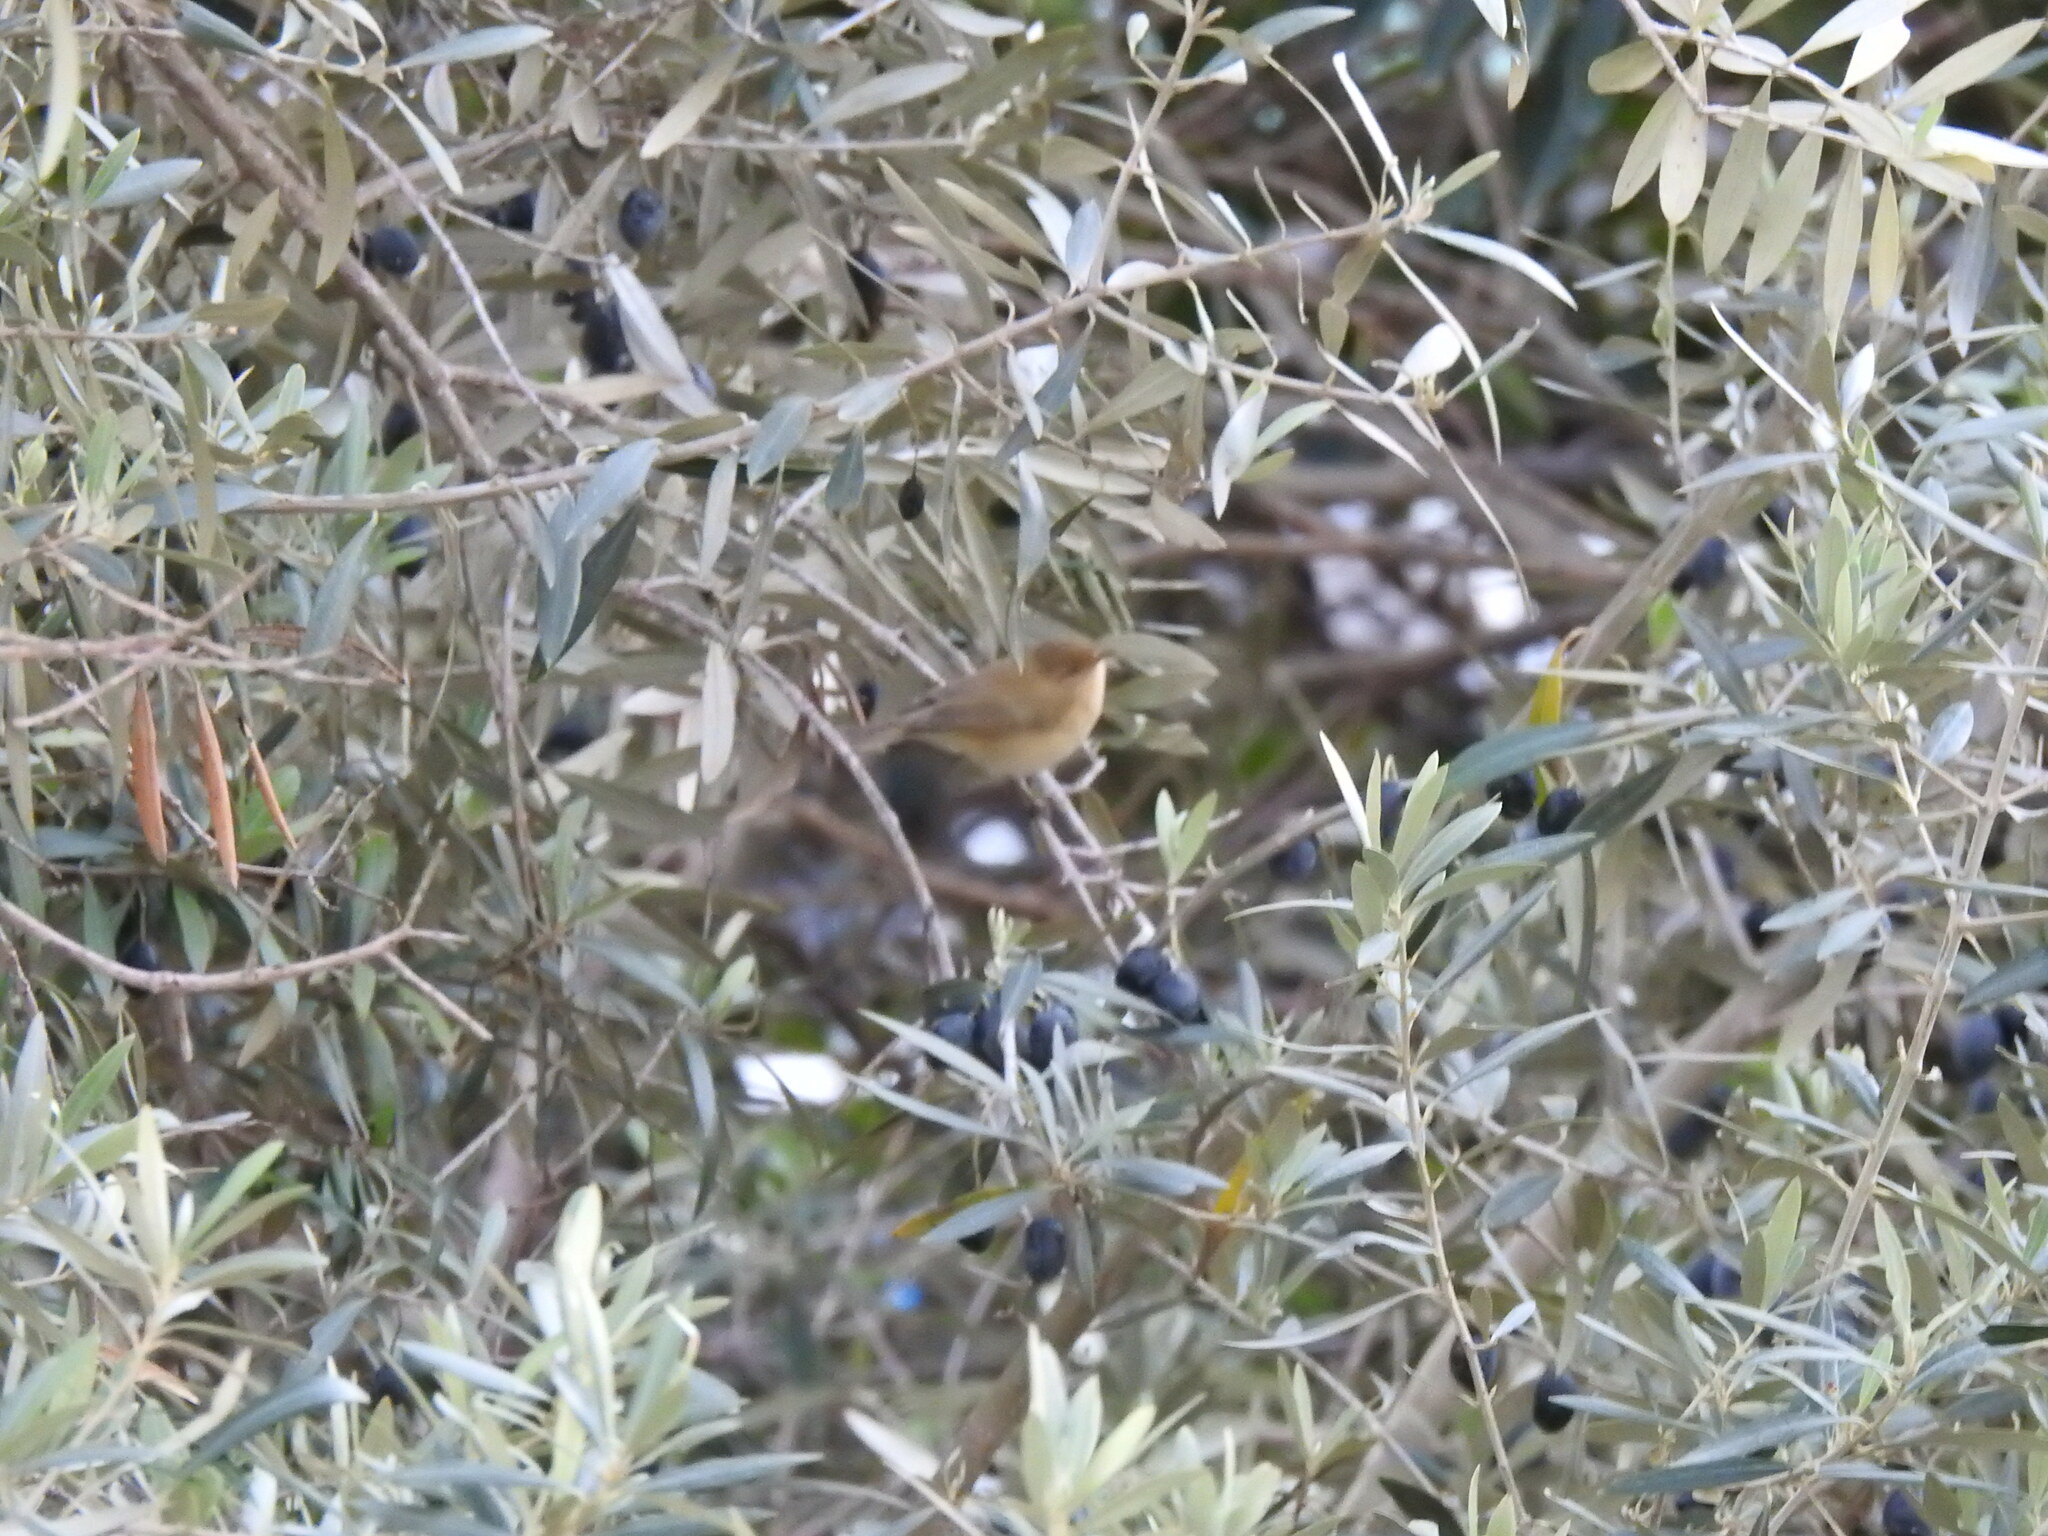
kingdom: Animalia
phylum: Chordata
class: Aves
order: Passeriformes
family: Phylloscopidae
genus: Phylloscopus
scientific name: Phylloscopus collybita
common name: Common chiffchaff
